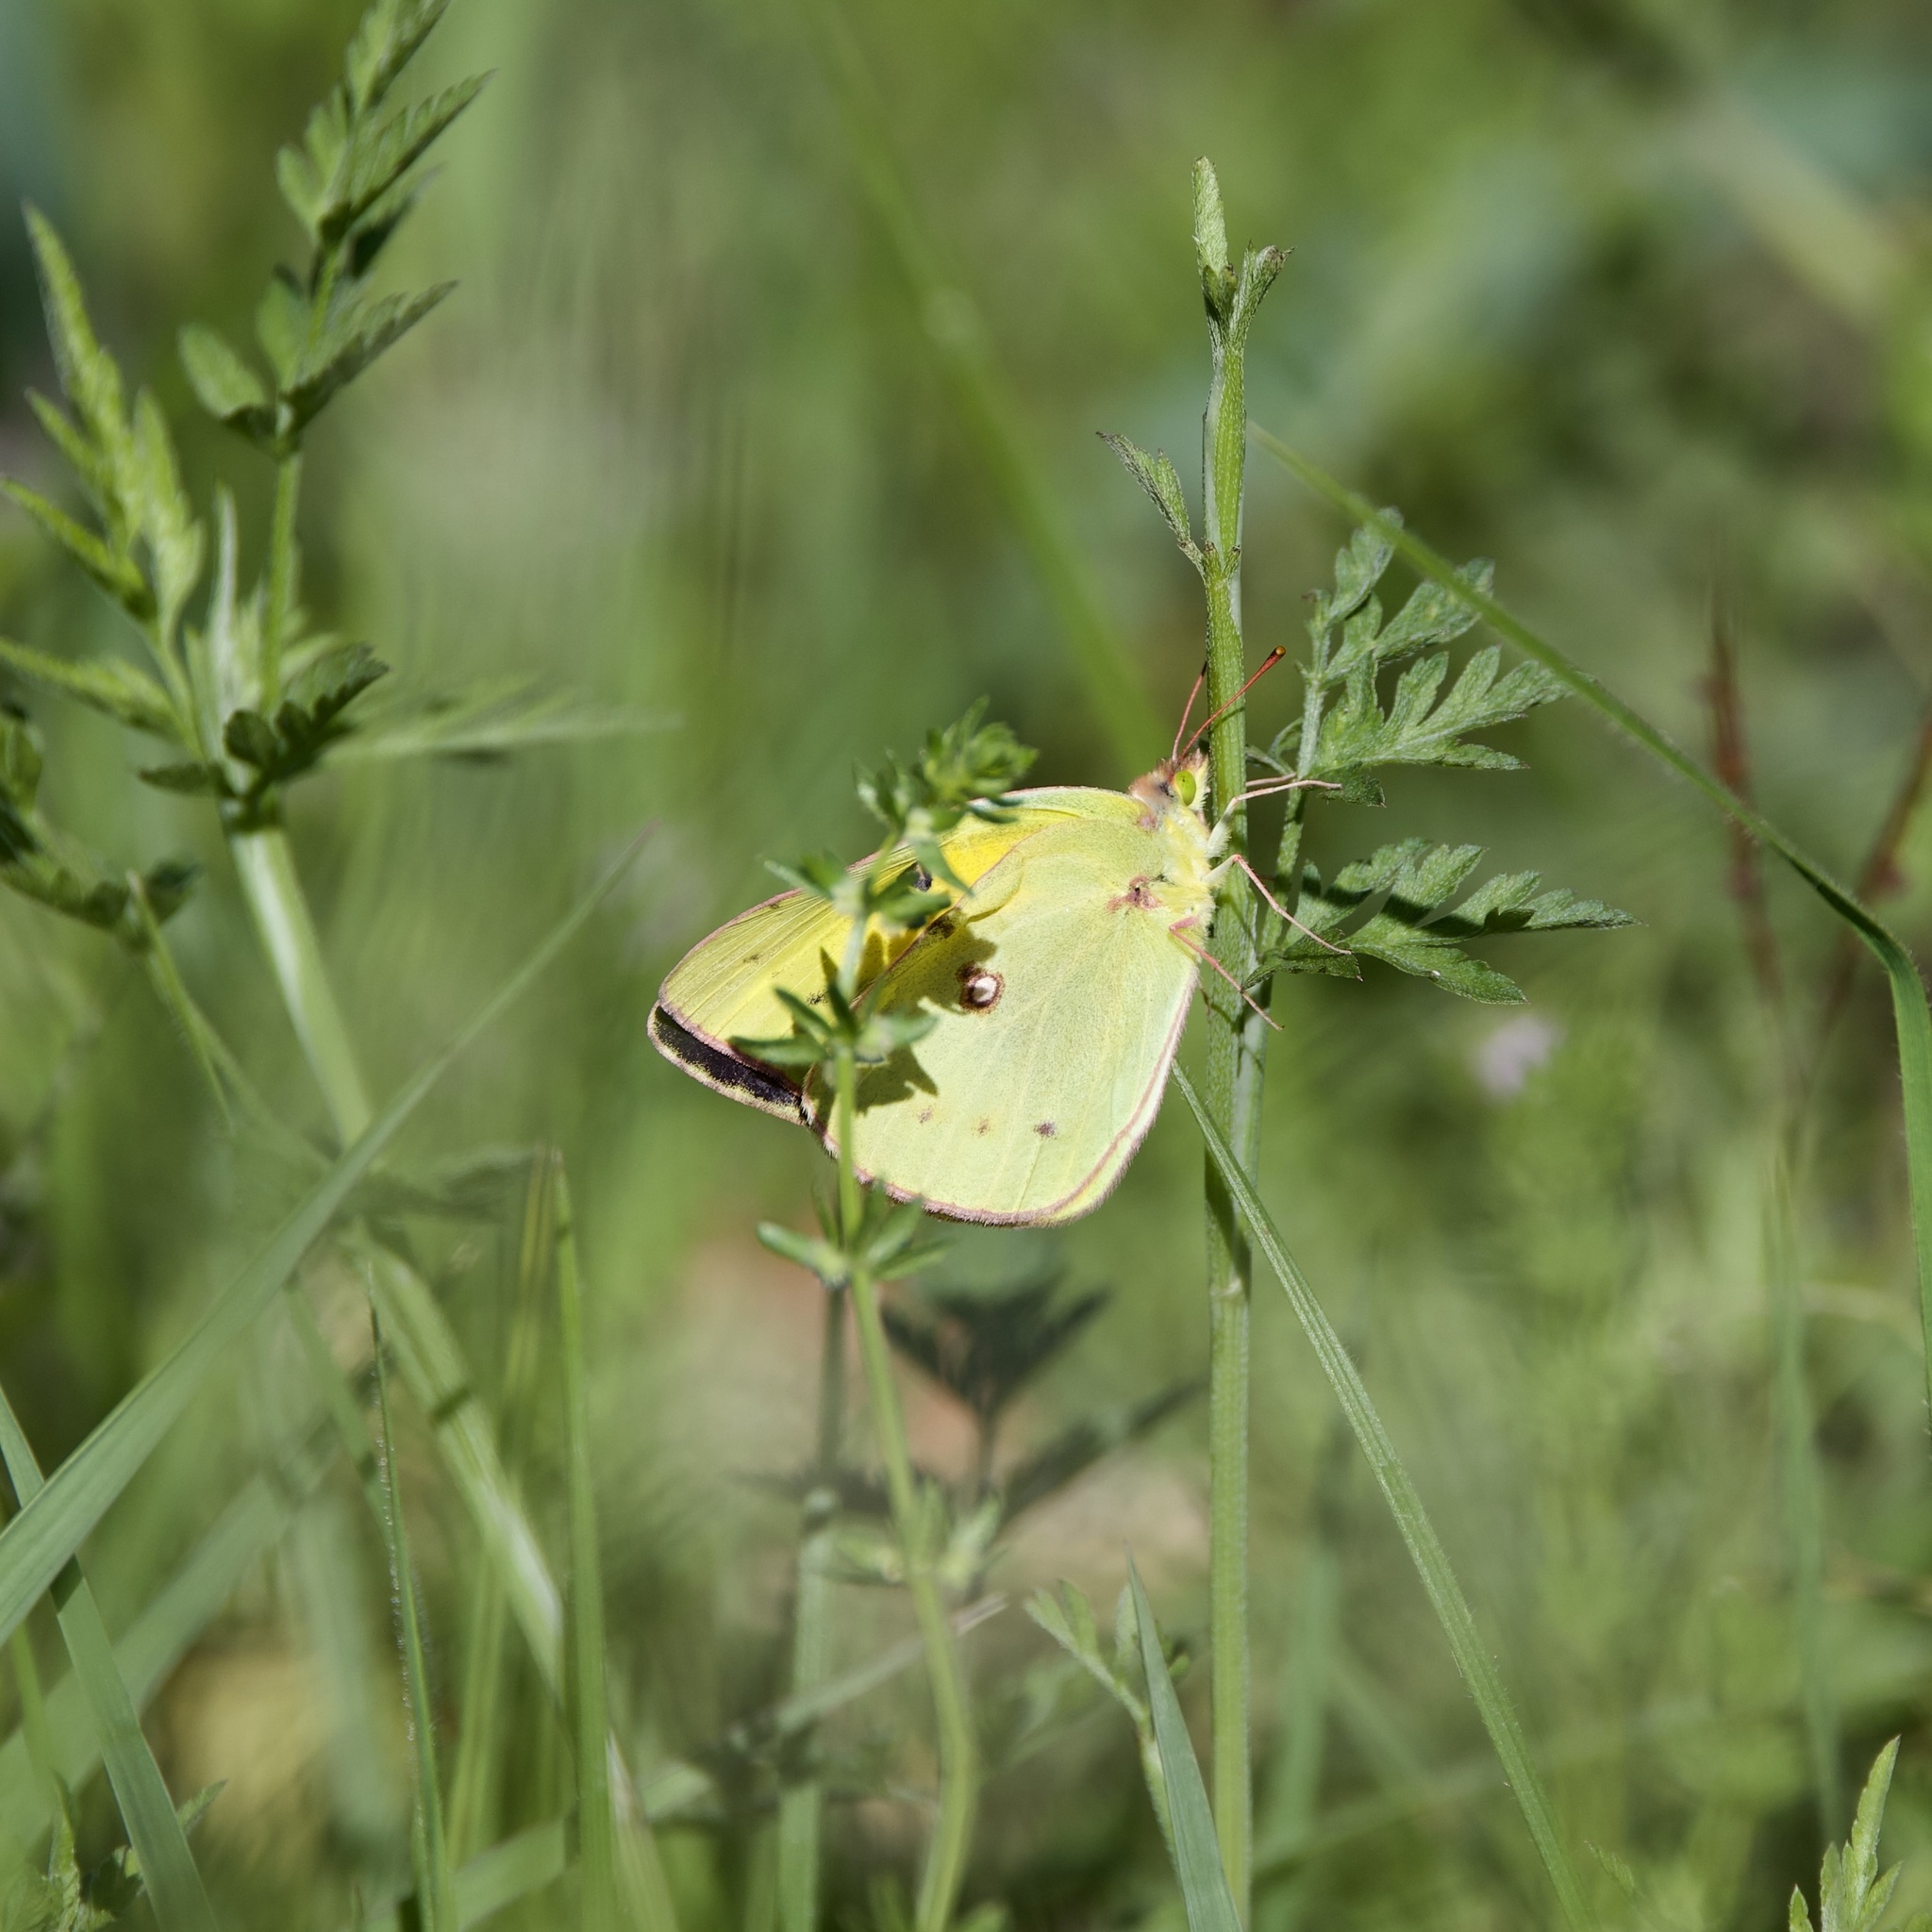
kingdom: Animalia
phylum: Arthropoda
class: Insecta
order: Lepidoptera
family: Pieridae
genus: Colias
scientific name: Colias eurytheme
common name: Alfalfa butterfly
